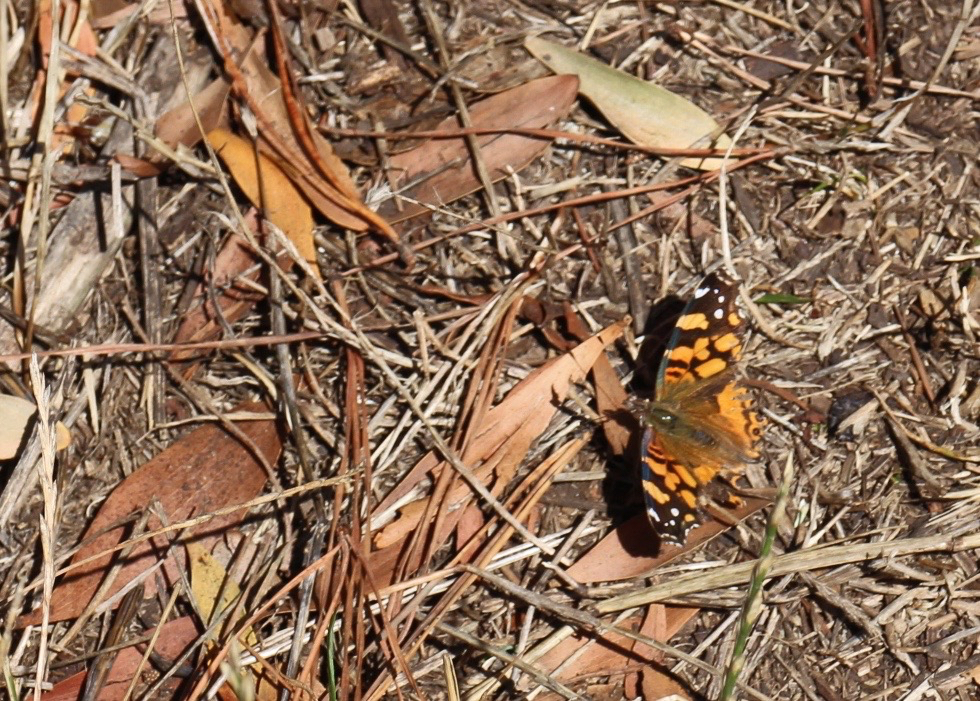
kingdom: Animalia
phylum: Arthropoda
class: Insecta
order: Lepidoptera
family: Nymphalidae
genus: Vanessa
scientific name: Vanessa annabella
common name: West coast lady
